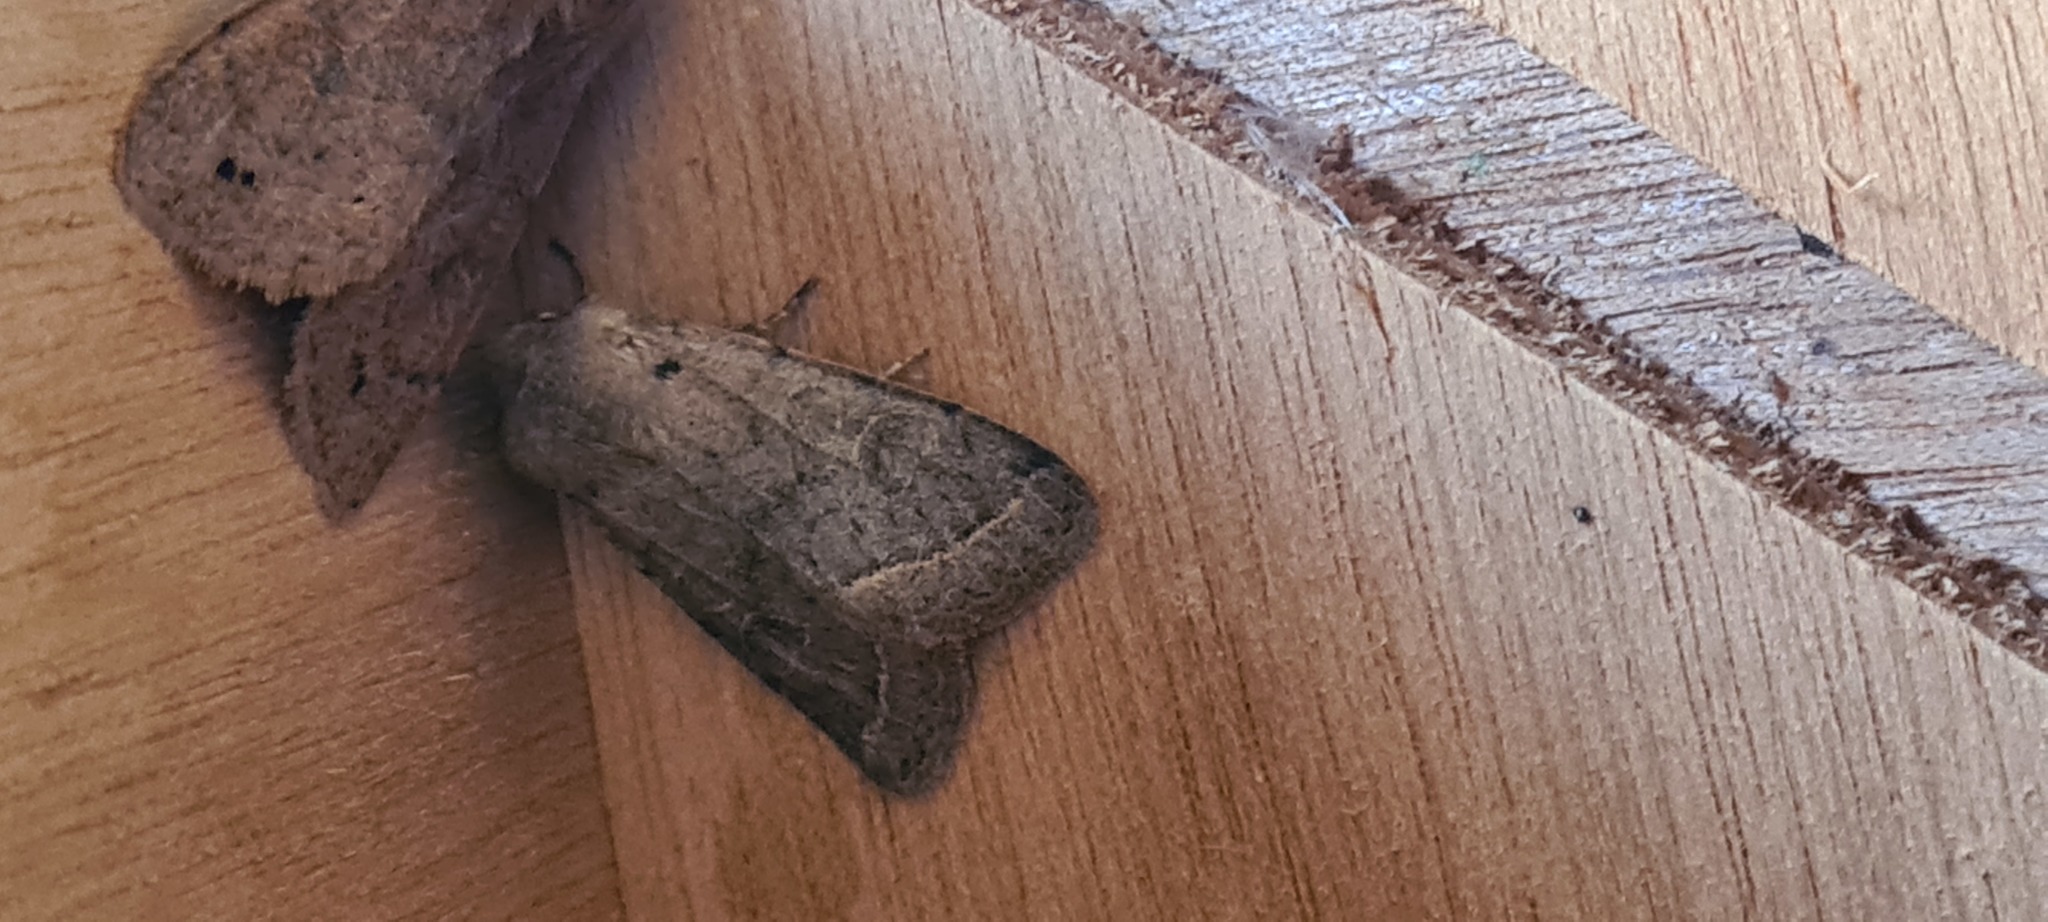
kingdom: Animalia
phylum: Arthropoda
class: Insecta
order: Lepidoptera
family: Noctuidae
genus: Orthosia
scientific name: Orthosia cerasi
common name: Common quaker
